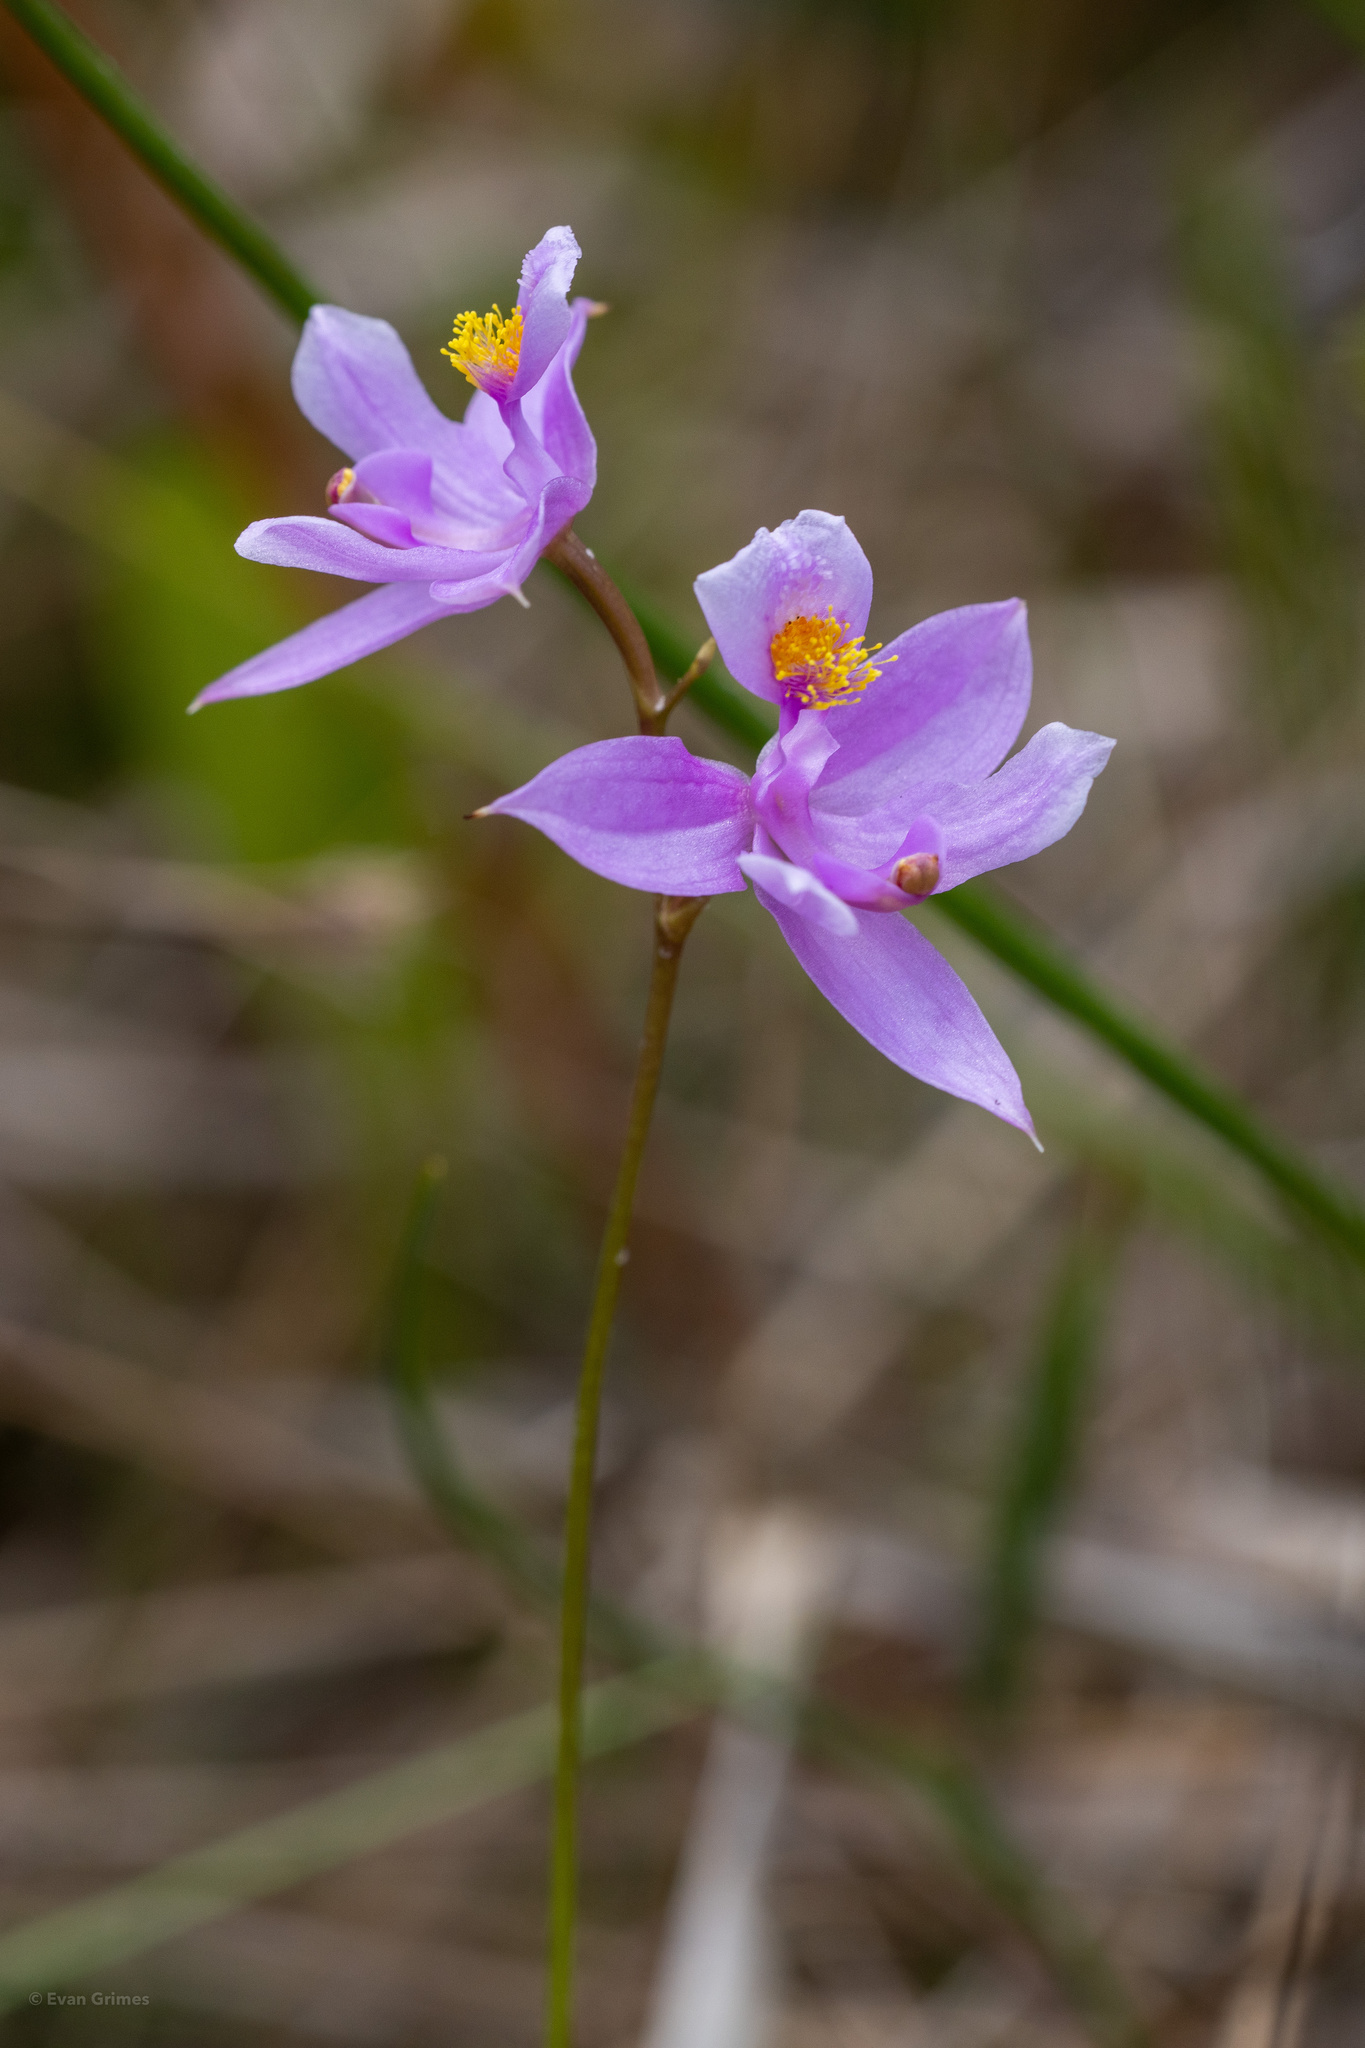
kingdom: Plantae
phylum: Tracheophyta
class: Liliopsida
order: Asparagales
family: Orchidaceae
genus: Calopogon
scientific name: Calopogon barbatus
